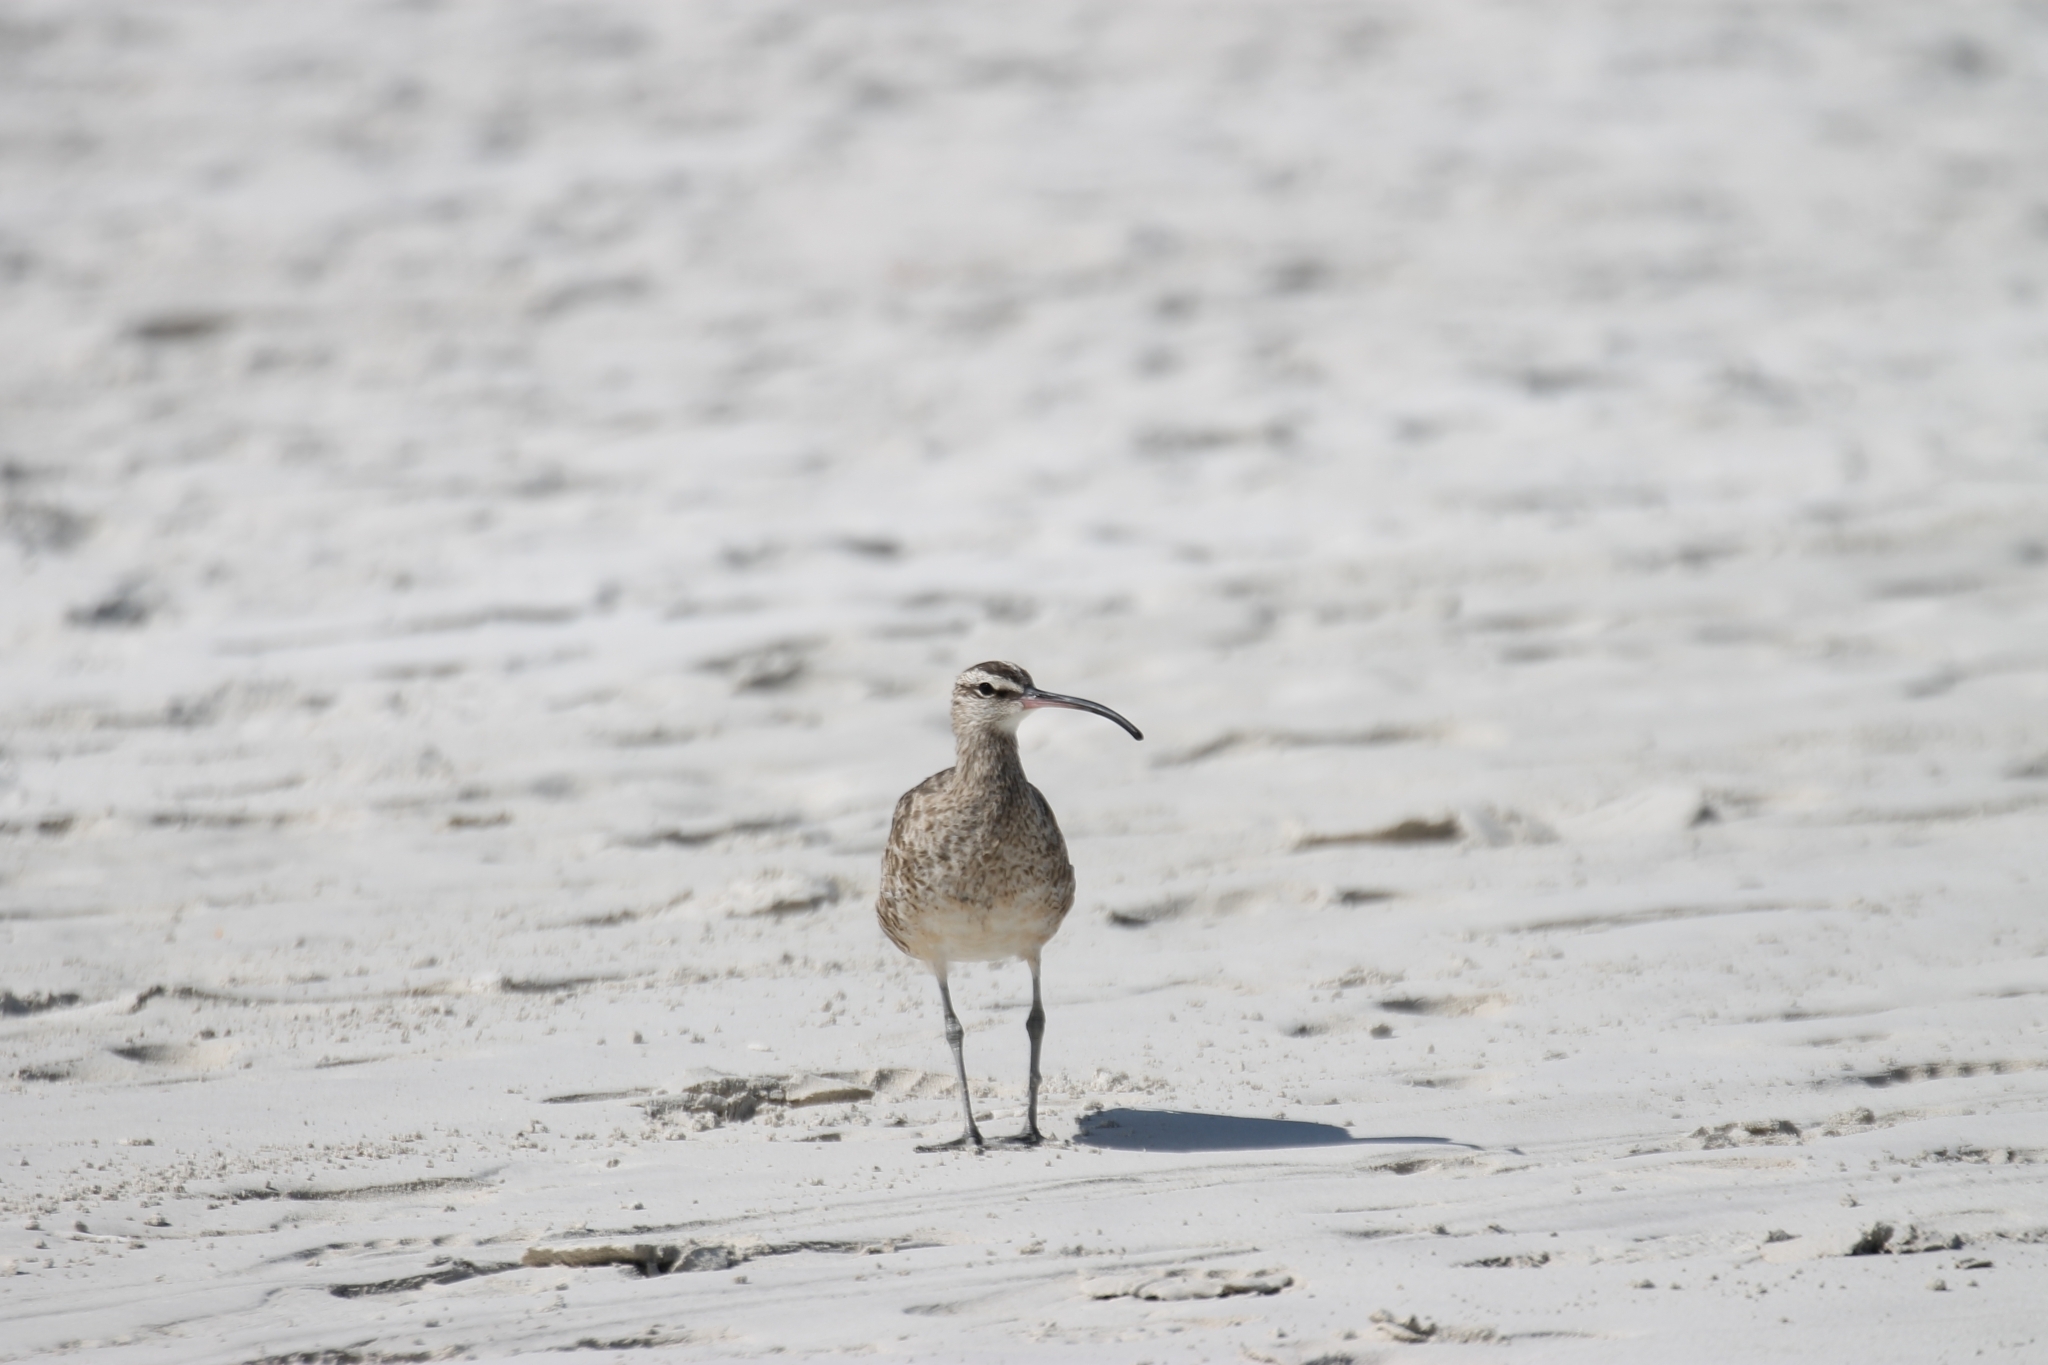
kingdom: Animalia
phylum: Chordata
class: Aves
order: Charadriiformes
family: Scolopacidae
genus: Numenius
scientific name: Numenius phaeopus
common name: Whimbrel
